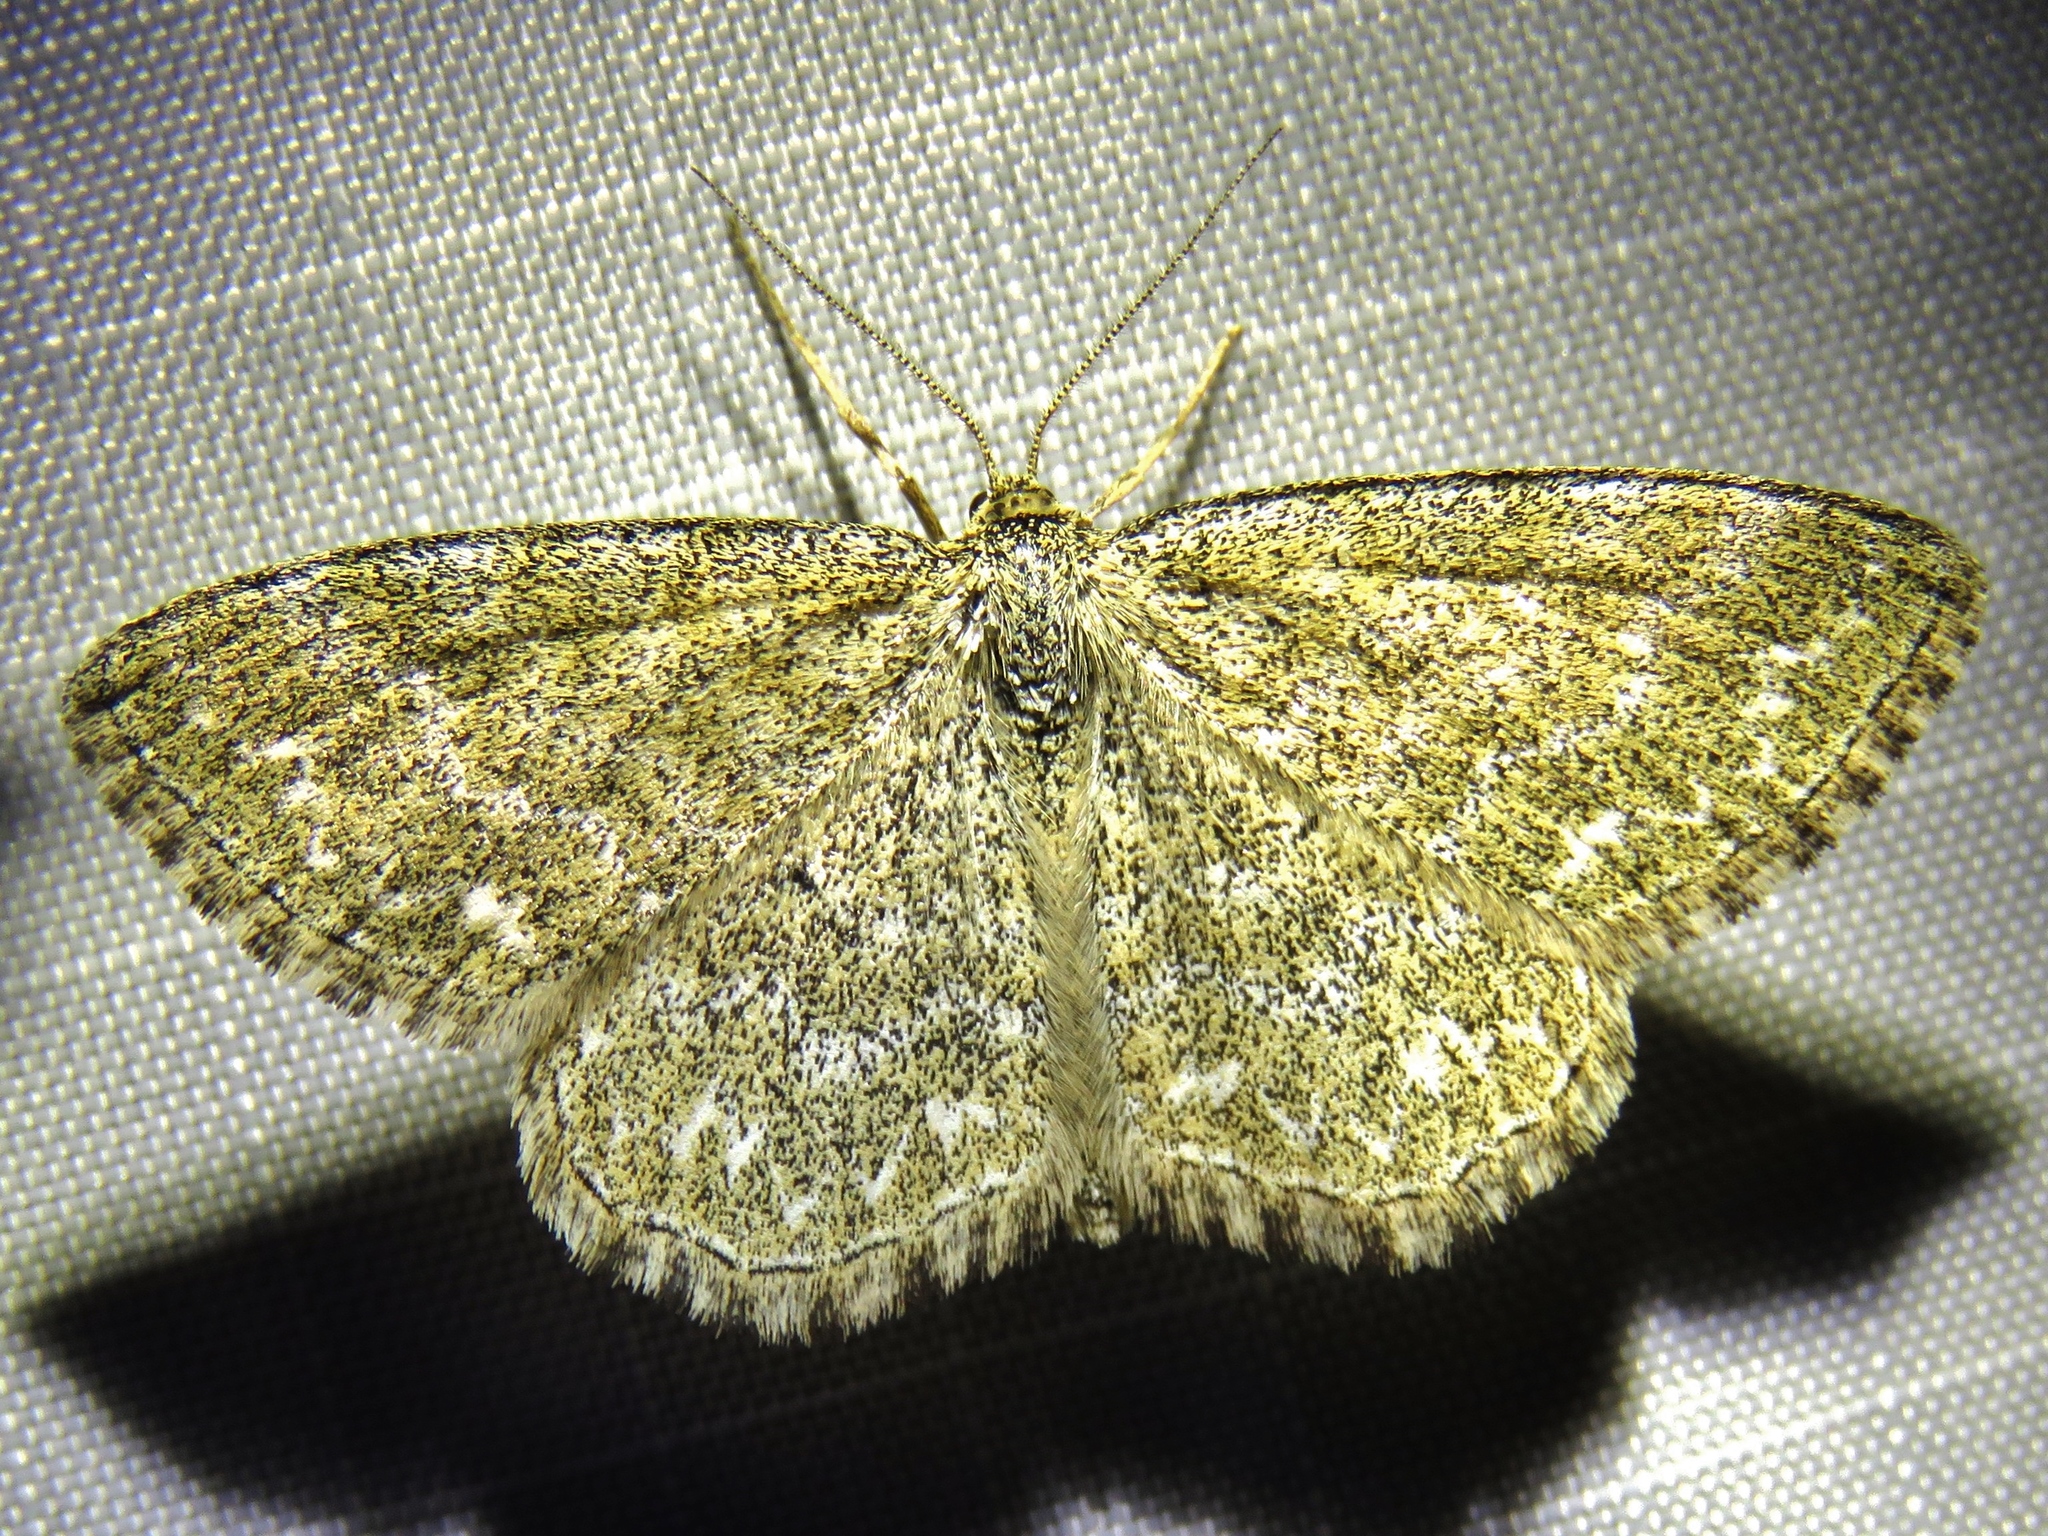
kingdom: Animalia
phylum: Arthropoda
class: Insecta
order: Lepidoptera
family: Geometridae
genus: Scopula
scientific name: Scopula immorata
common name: Lewes wave
